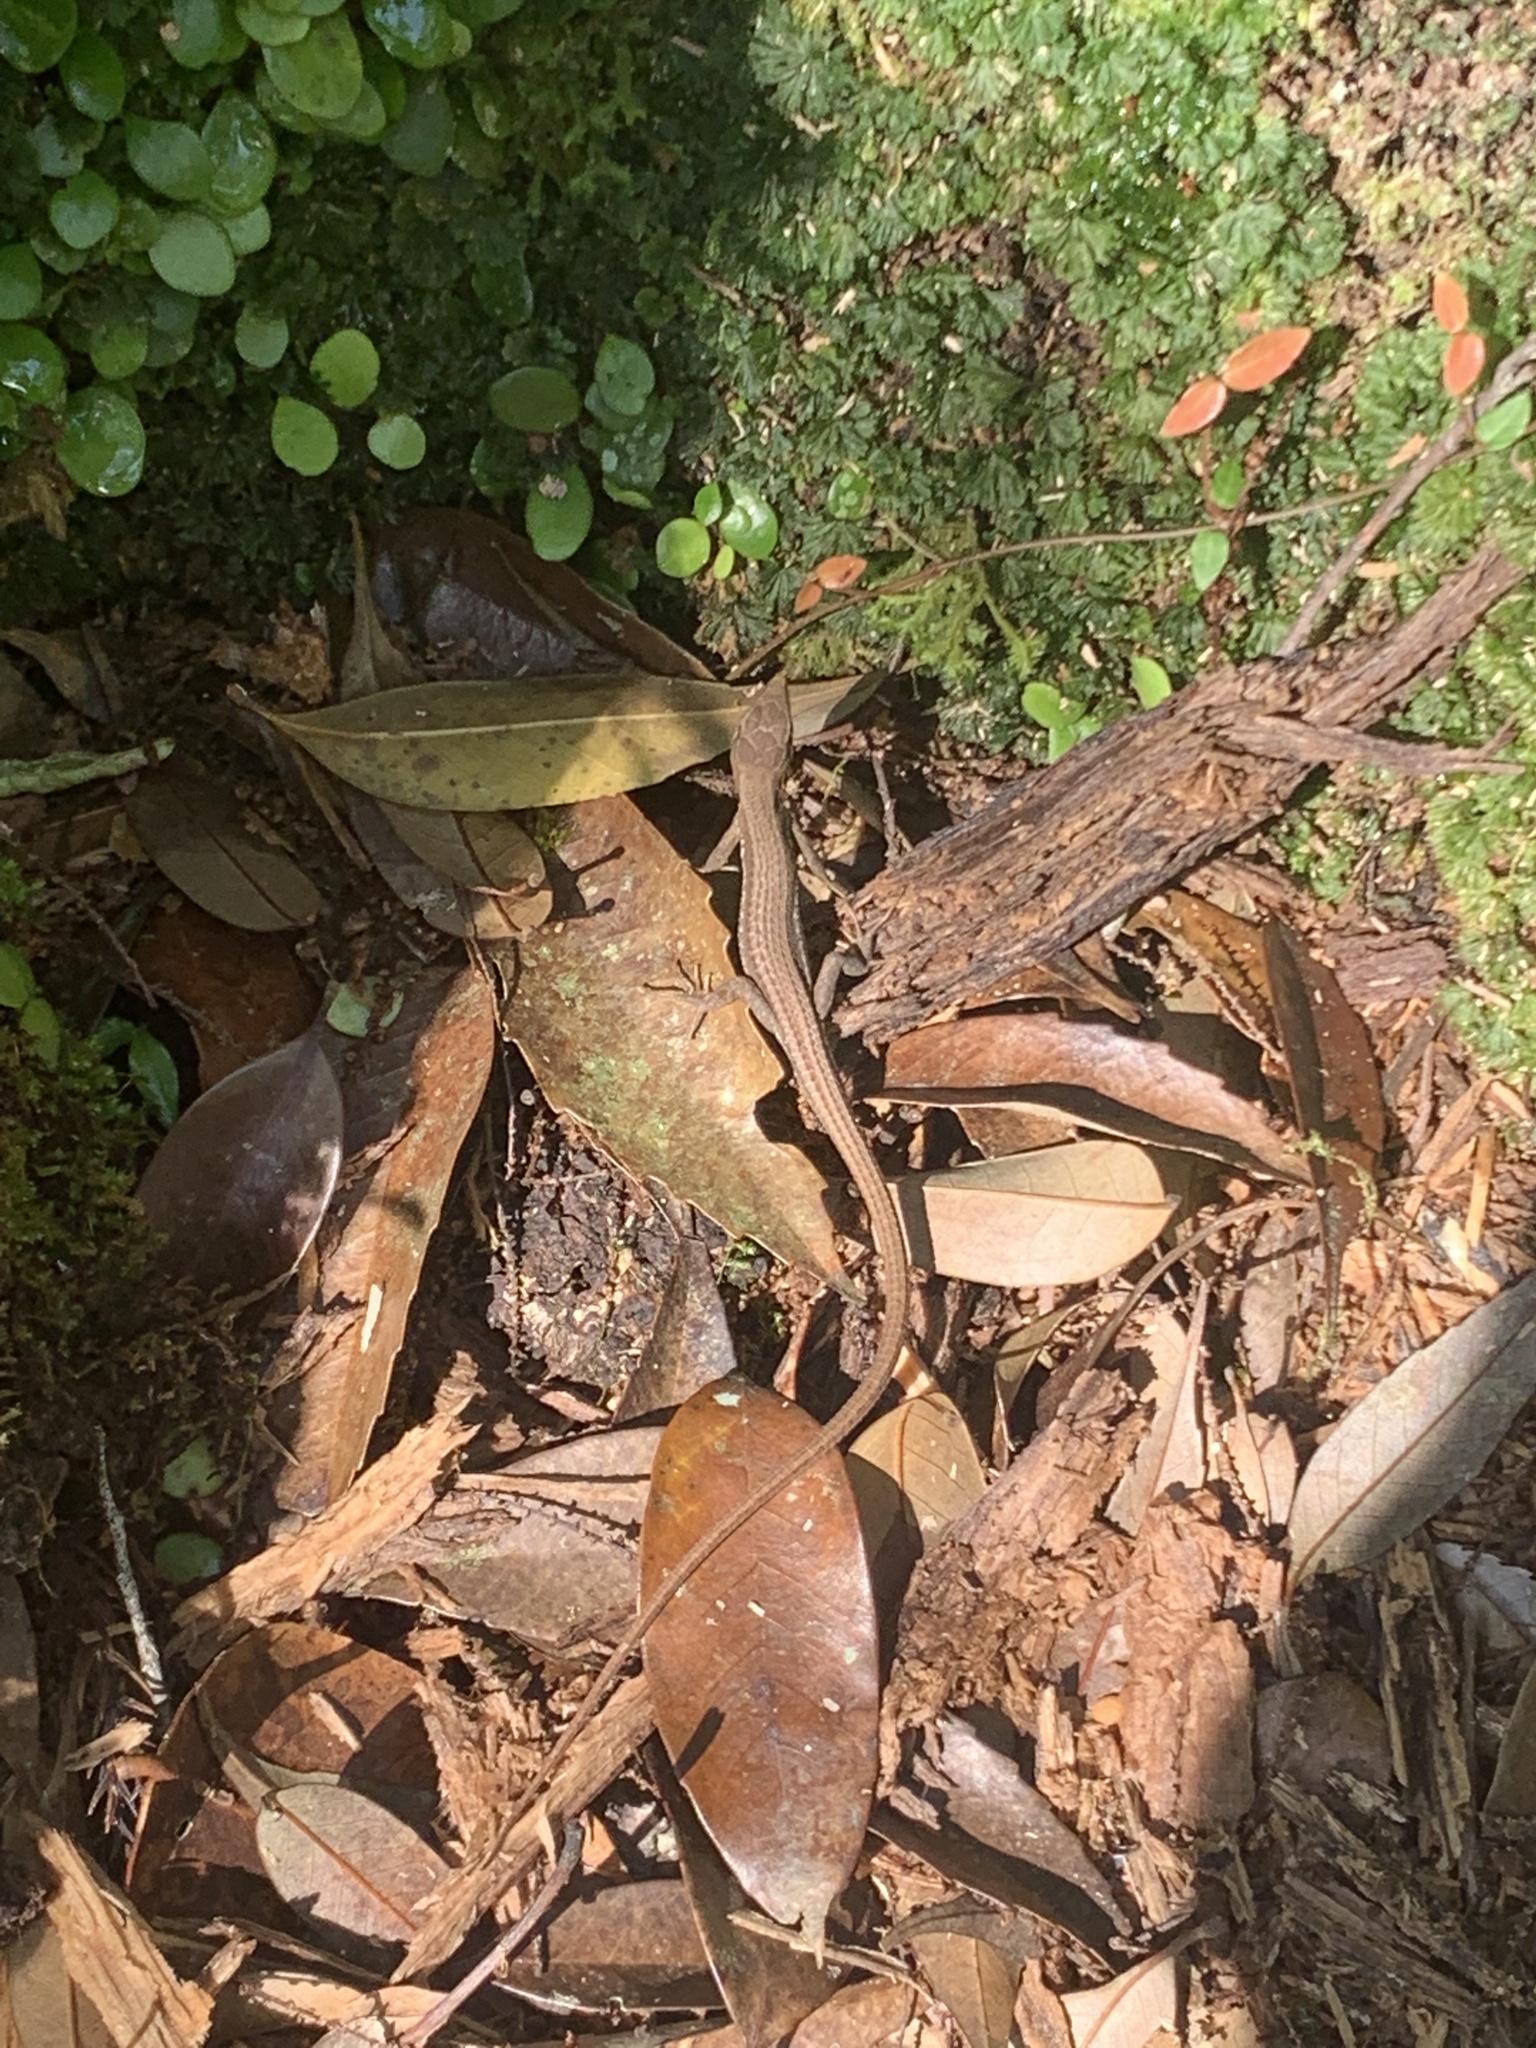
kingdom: Animalia
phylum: Chordata
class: Squamata
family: Lacertidae
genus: Takydromus
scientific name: Takydromus tachydromoides
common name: Japanese grass lizard
